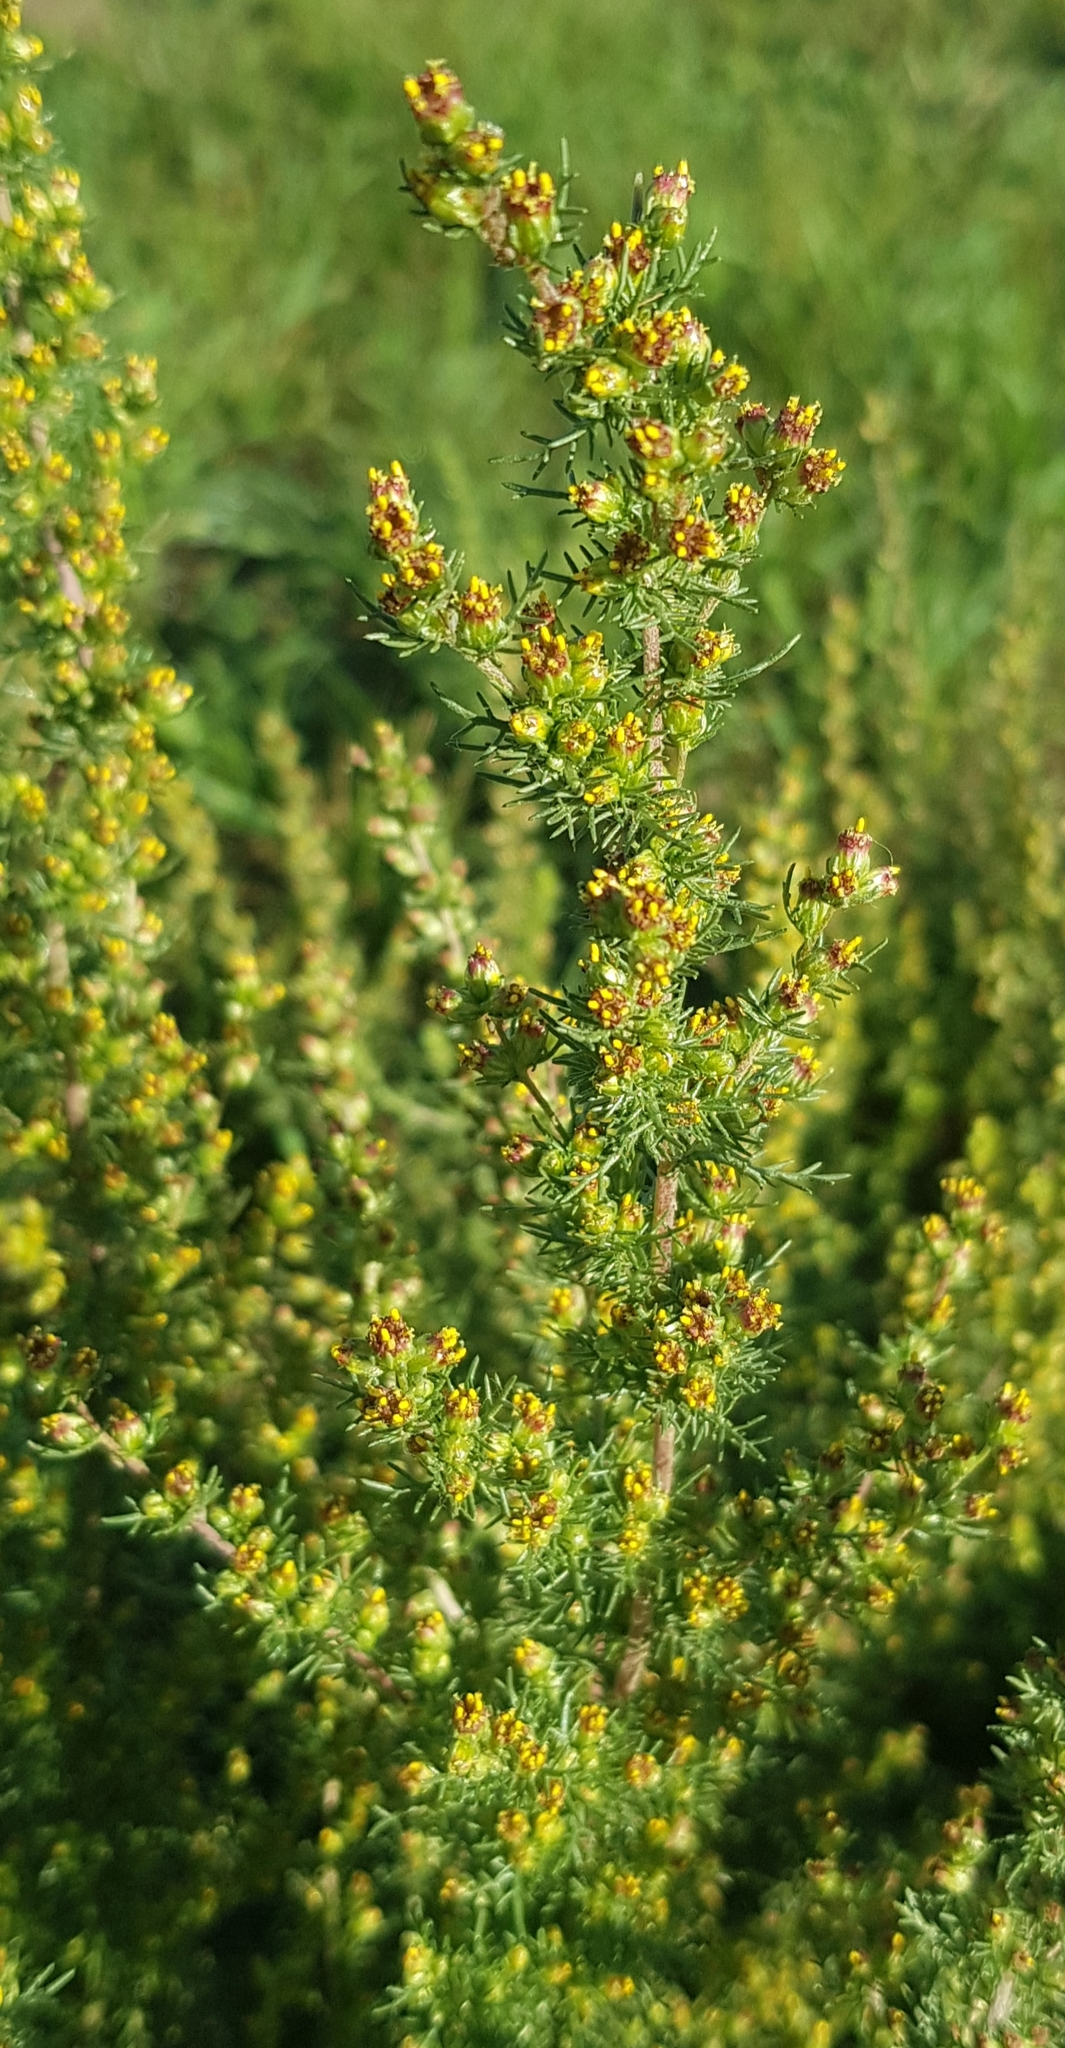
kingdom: Plantae
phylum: Tracheophyta
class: Magnoliopsida
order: Asterales
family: Asteraceae
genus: Neopallasia
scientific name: Neopallasia pectinata
